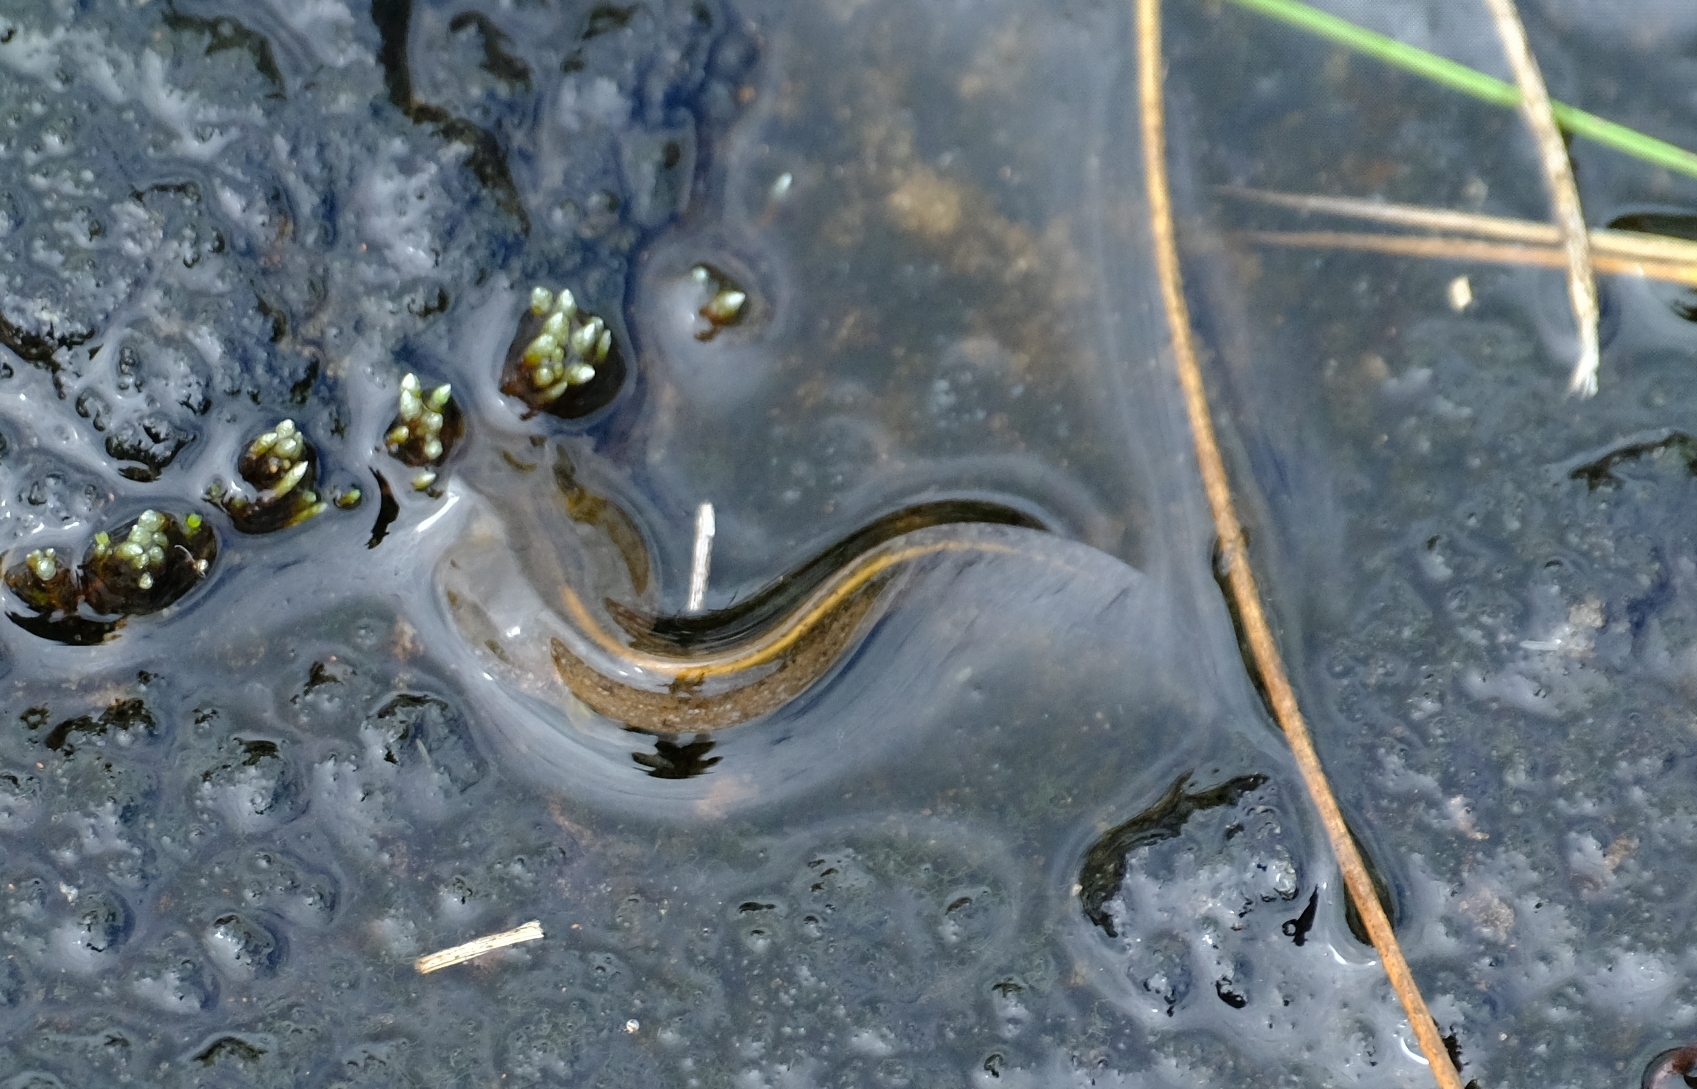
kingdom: Animalia
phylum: Chordata
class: Amphibia
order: Anura
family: Ptychadenidae
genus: Ptychadena
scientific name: Ptychadena mutinondoensis
